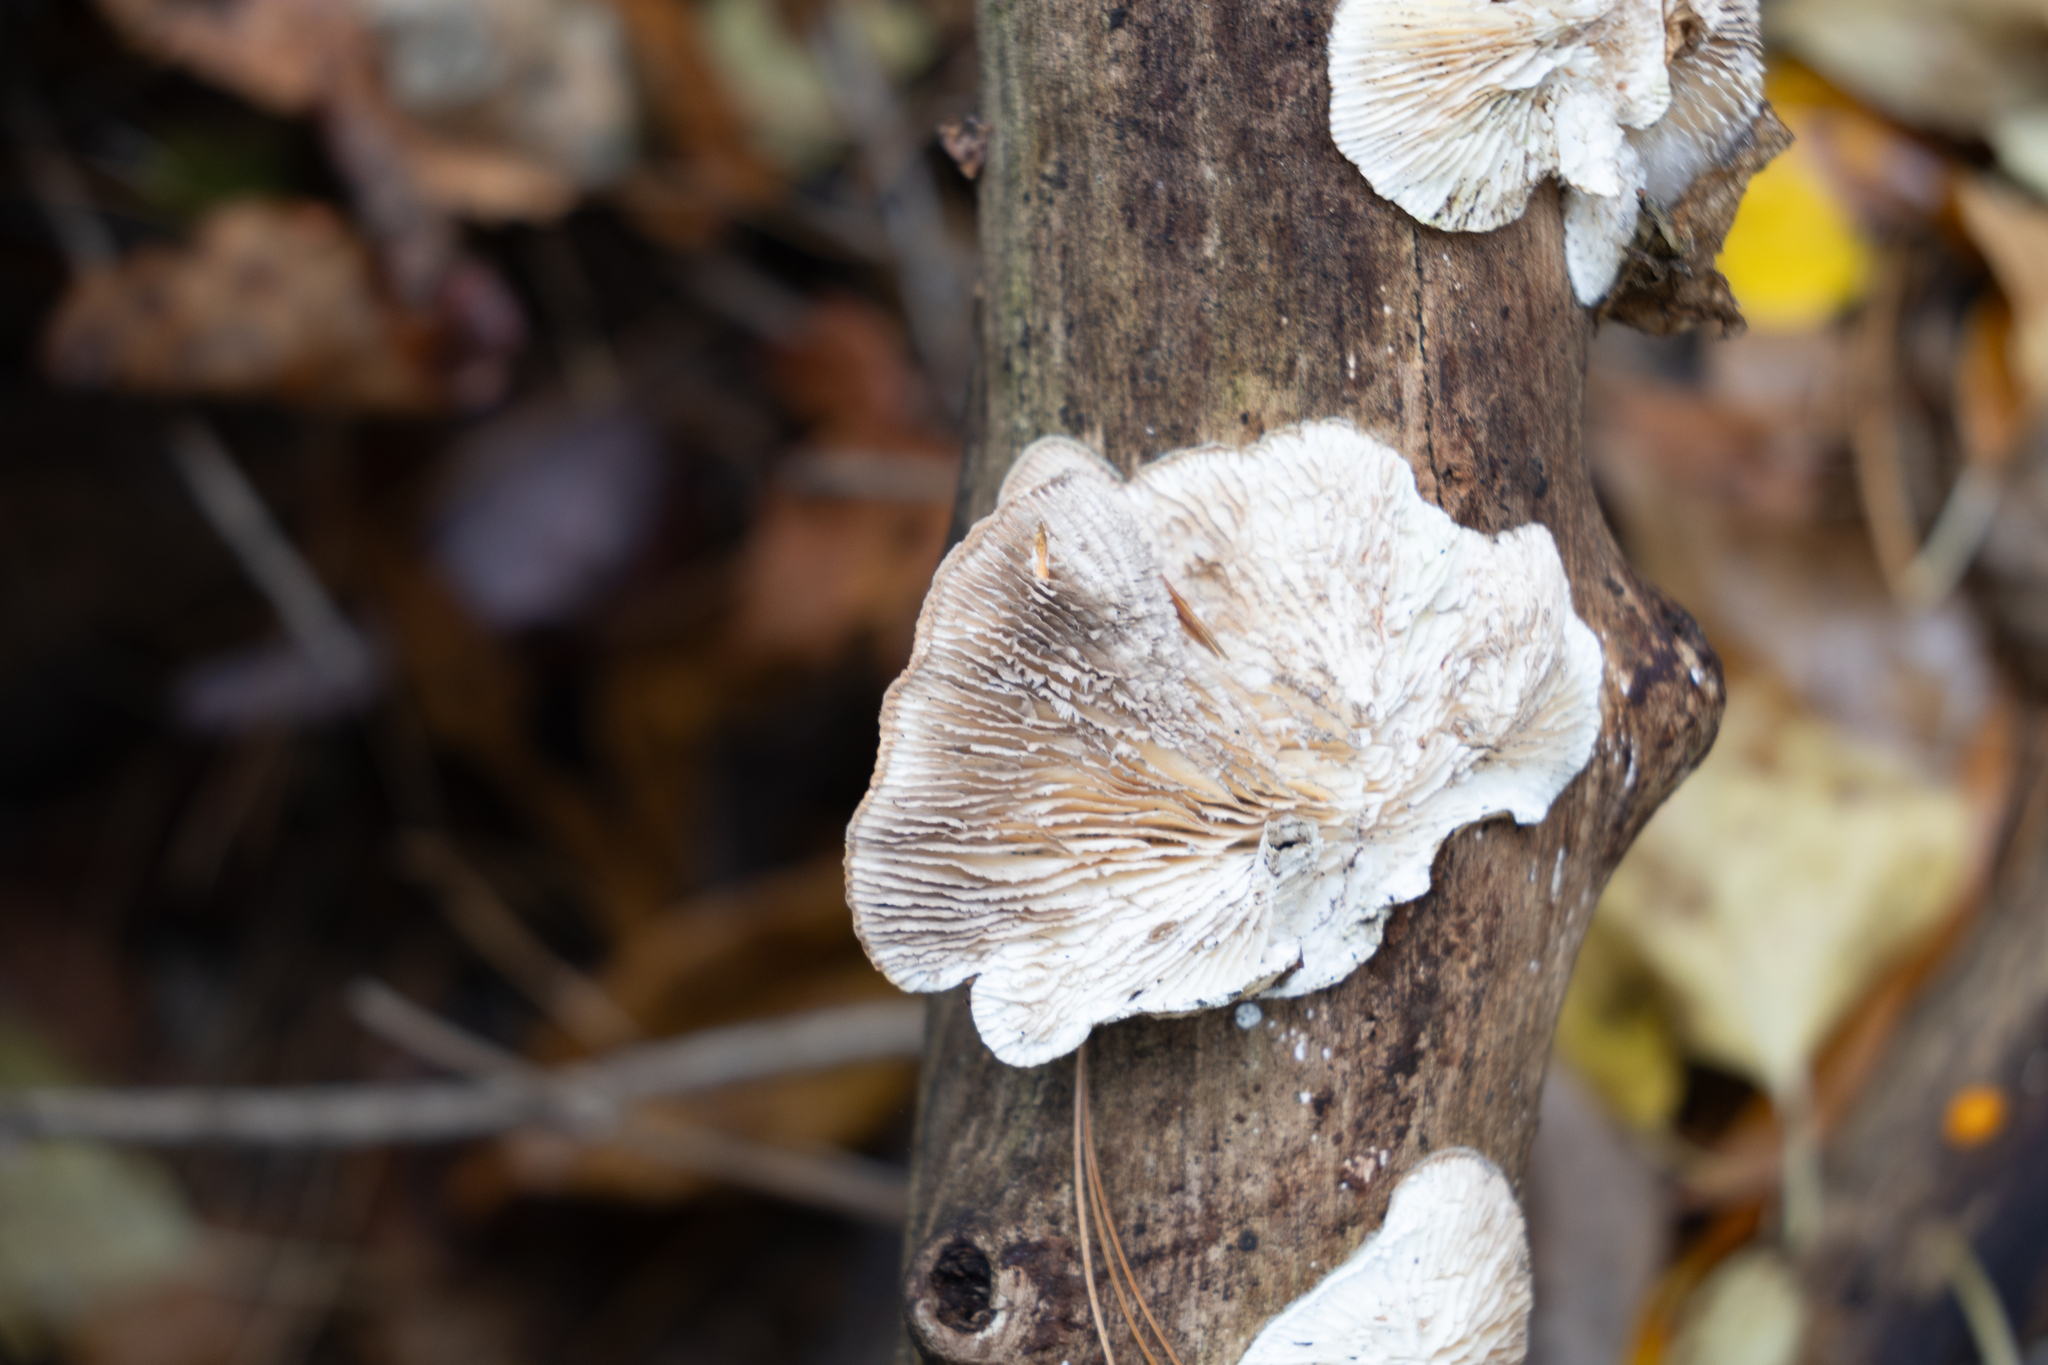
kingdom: Fungi
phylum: Basidiomycota
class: Agaricomycetes
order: Polyporales
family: Polyporaceae
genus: Lenzites
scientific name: Lenzites betulinus
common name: Birch mazegill
